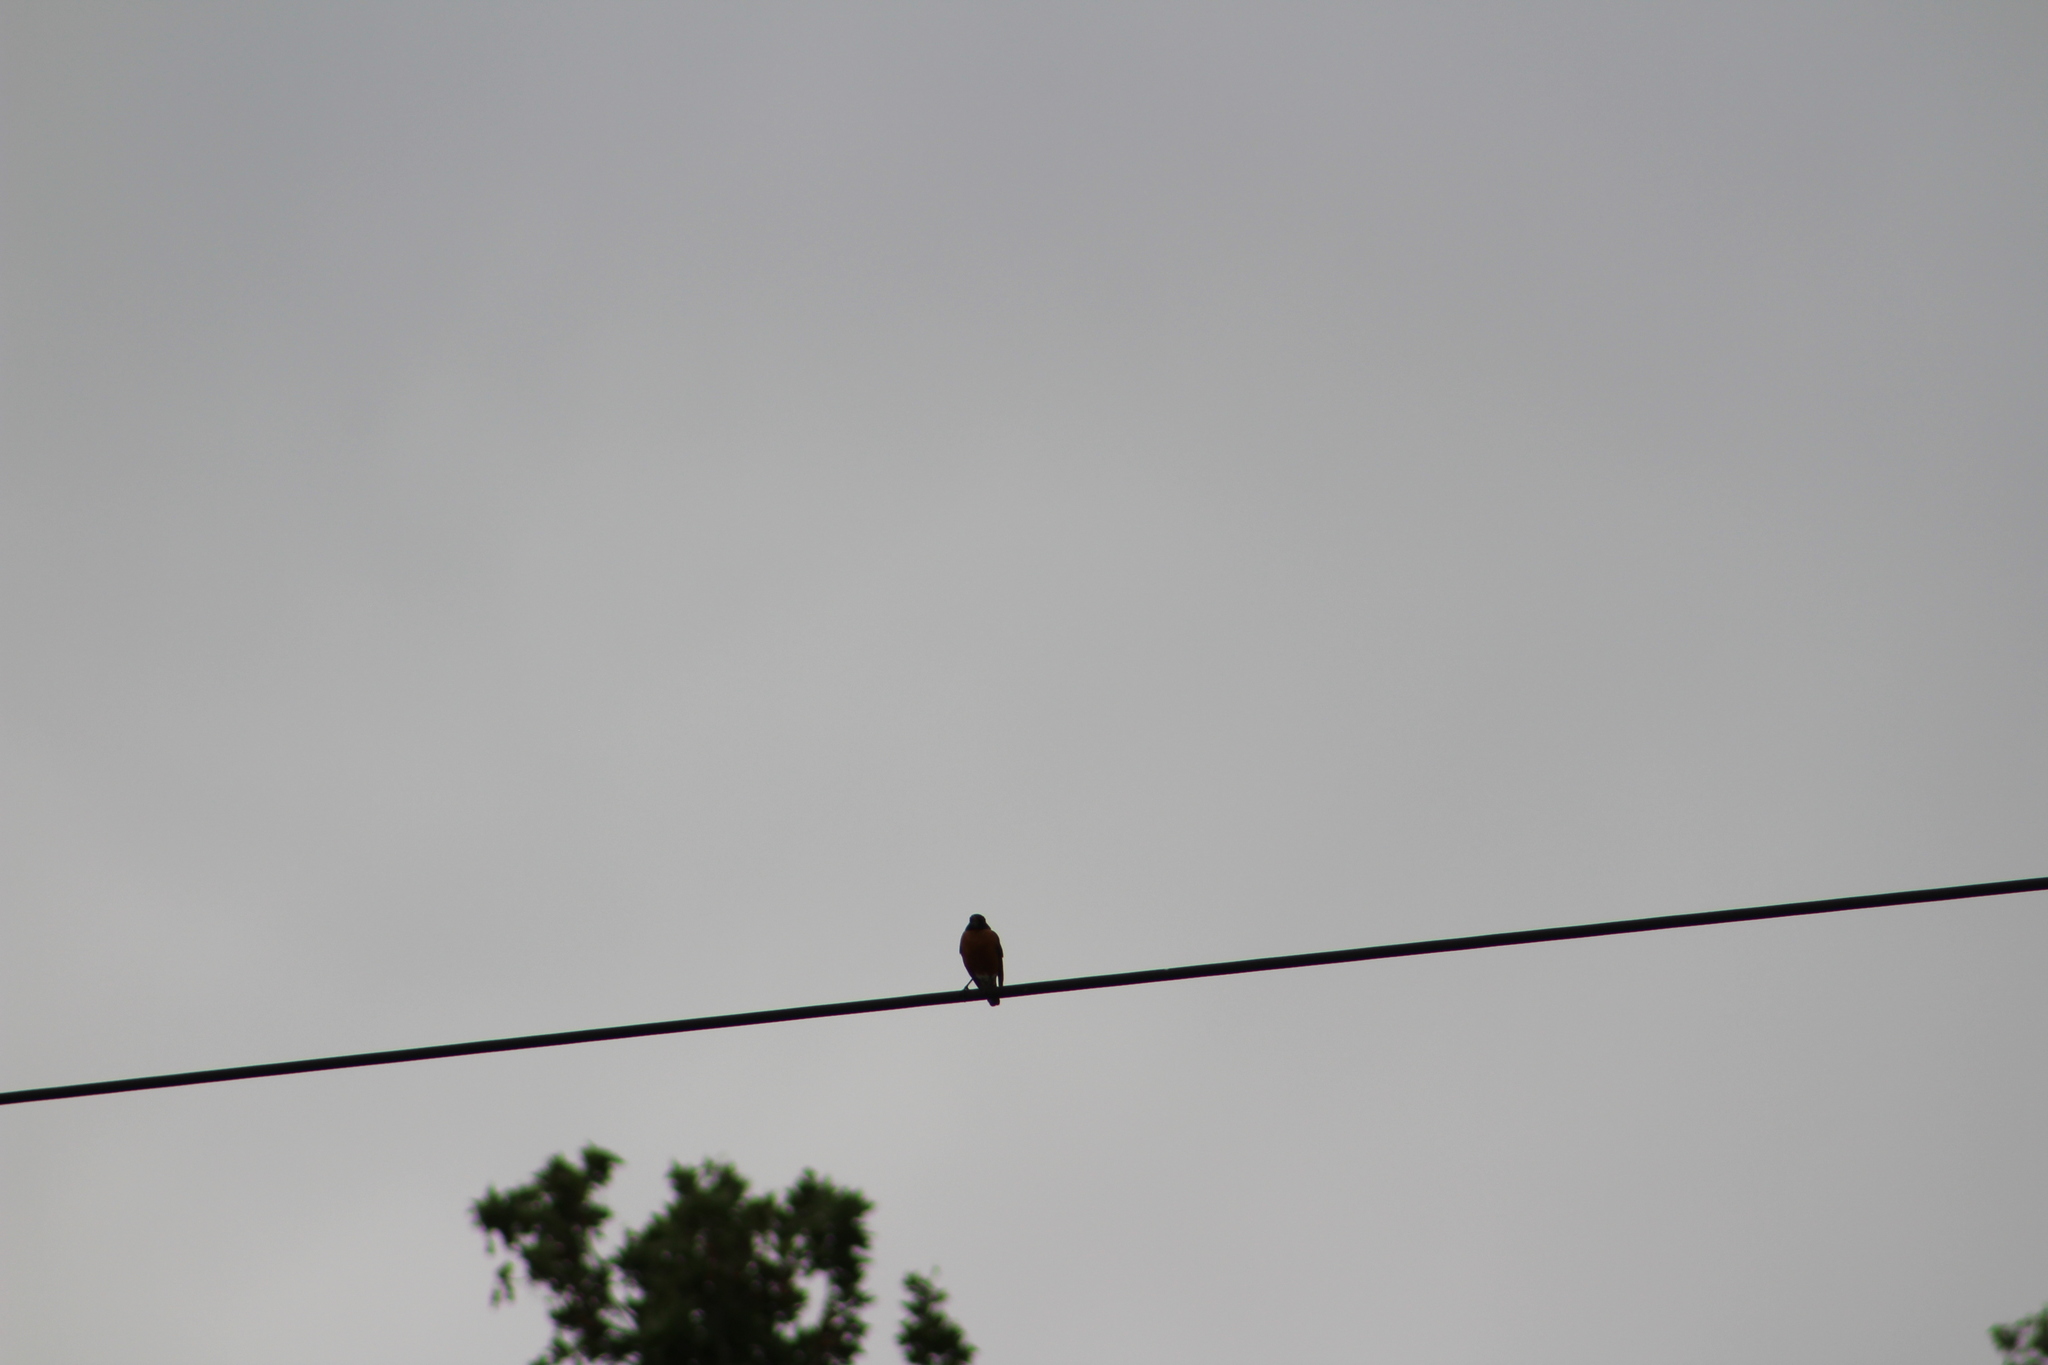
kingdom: Animalia
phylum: Chordata
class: Aves
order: Passeriformes
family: Turdidae
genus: Turdus
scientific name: Turdus migratorius
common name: American robin
